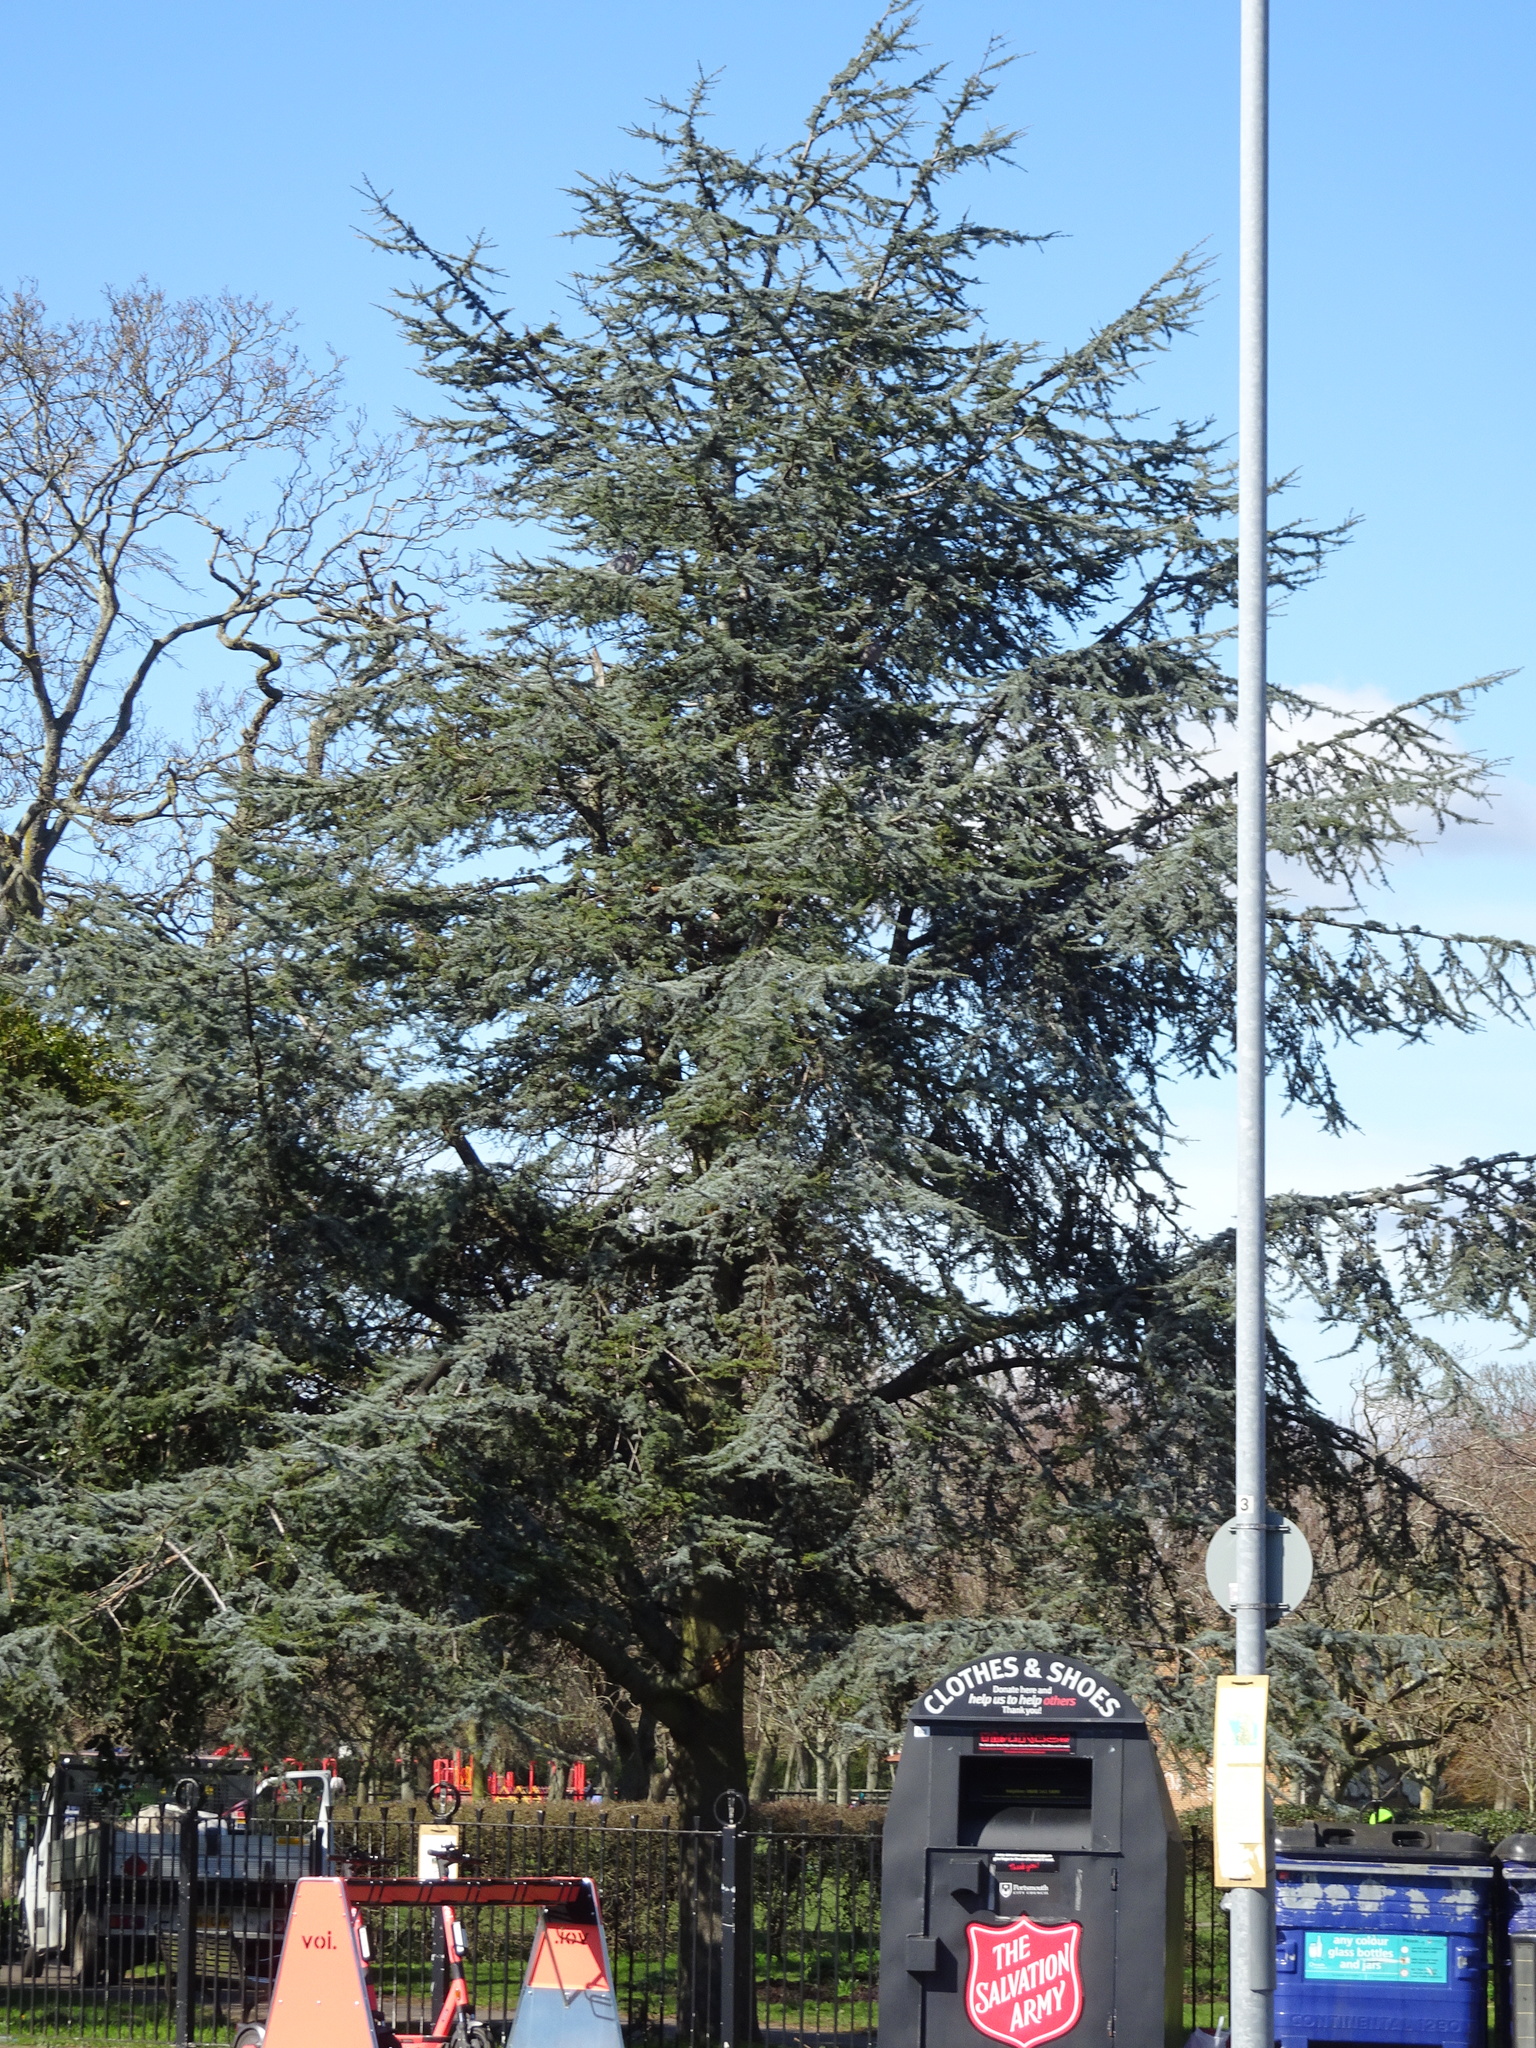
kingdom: Plantae
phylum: Tracheophyta
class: Pinopsida
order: Pinales
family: Pinaceae
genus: Cedrus
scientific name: Cedrus atlantica
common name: Atlas cedar
